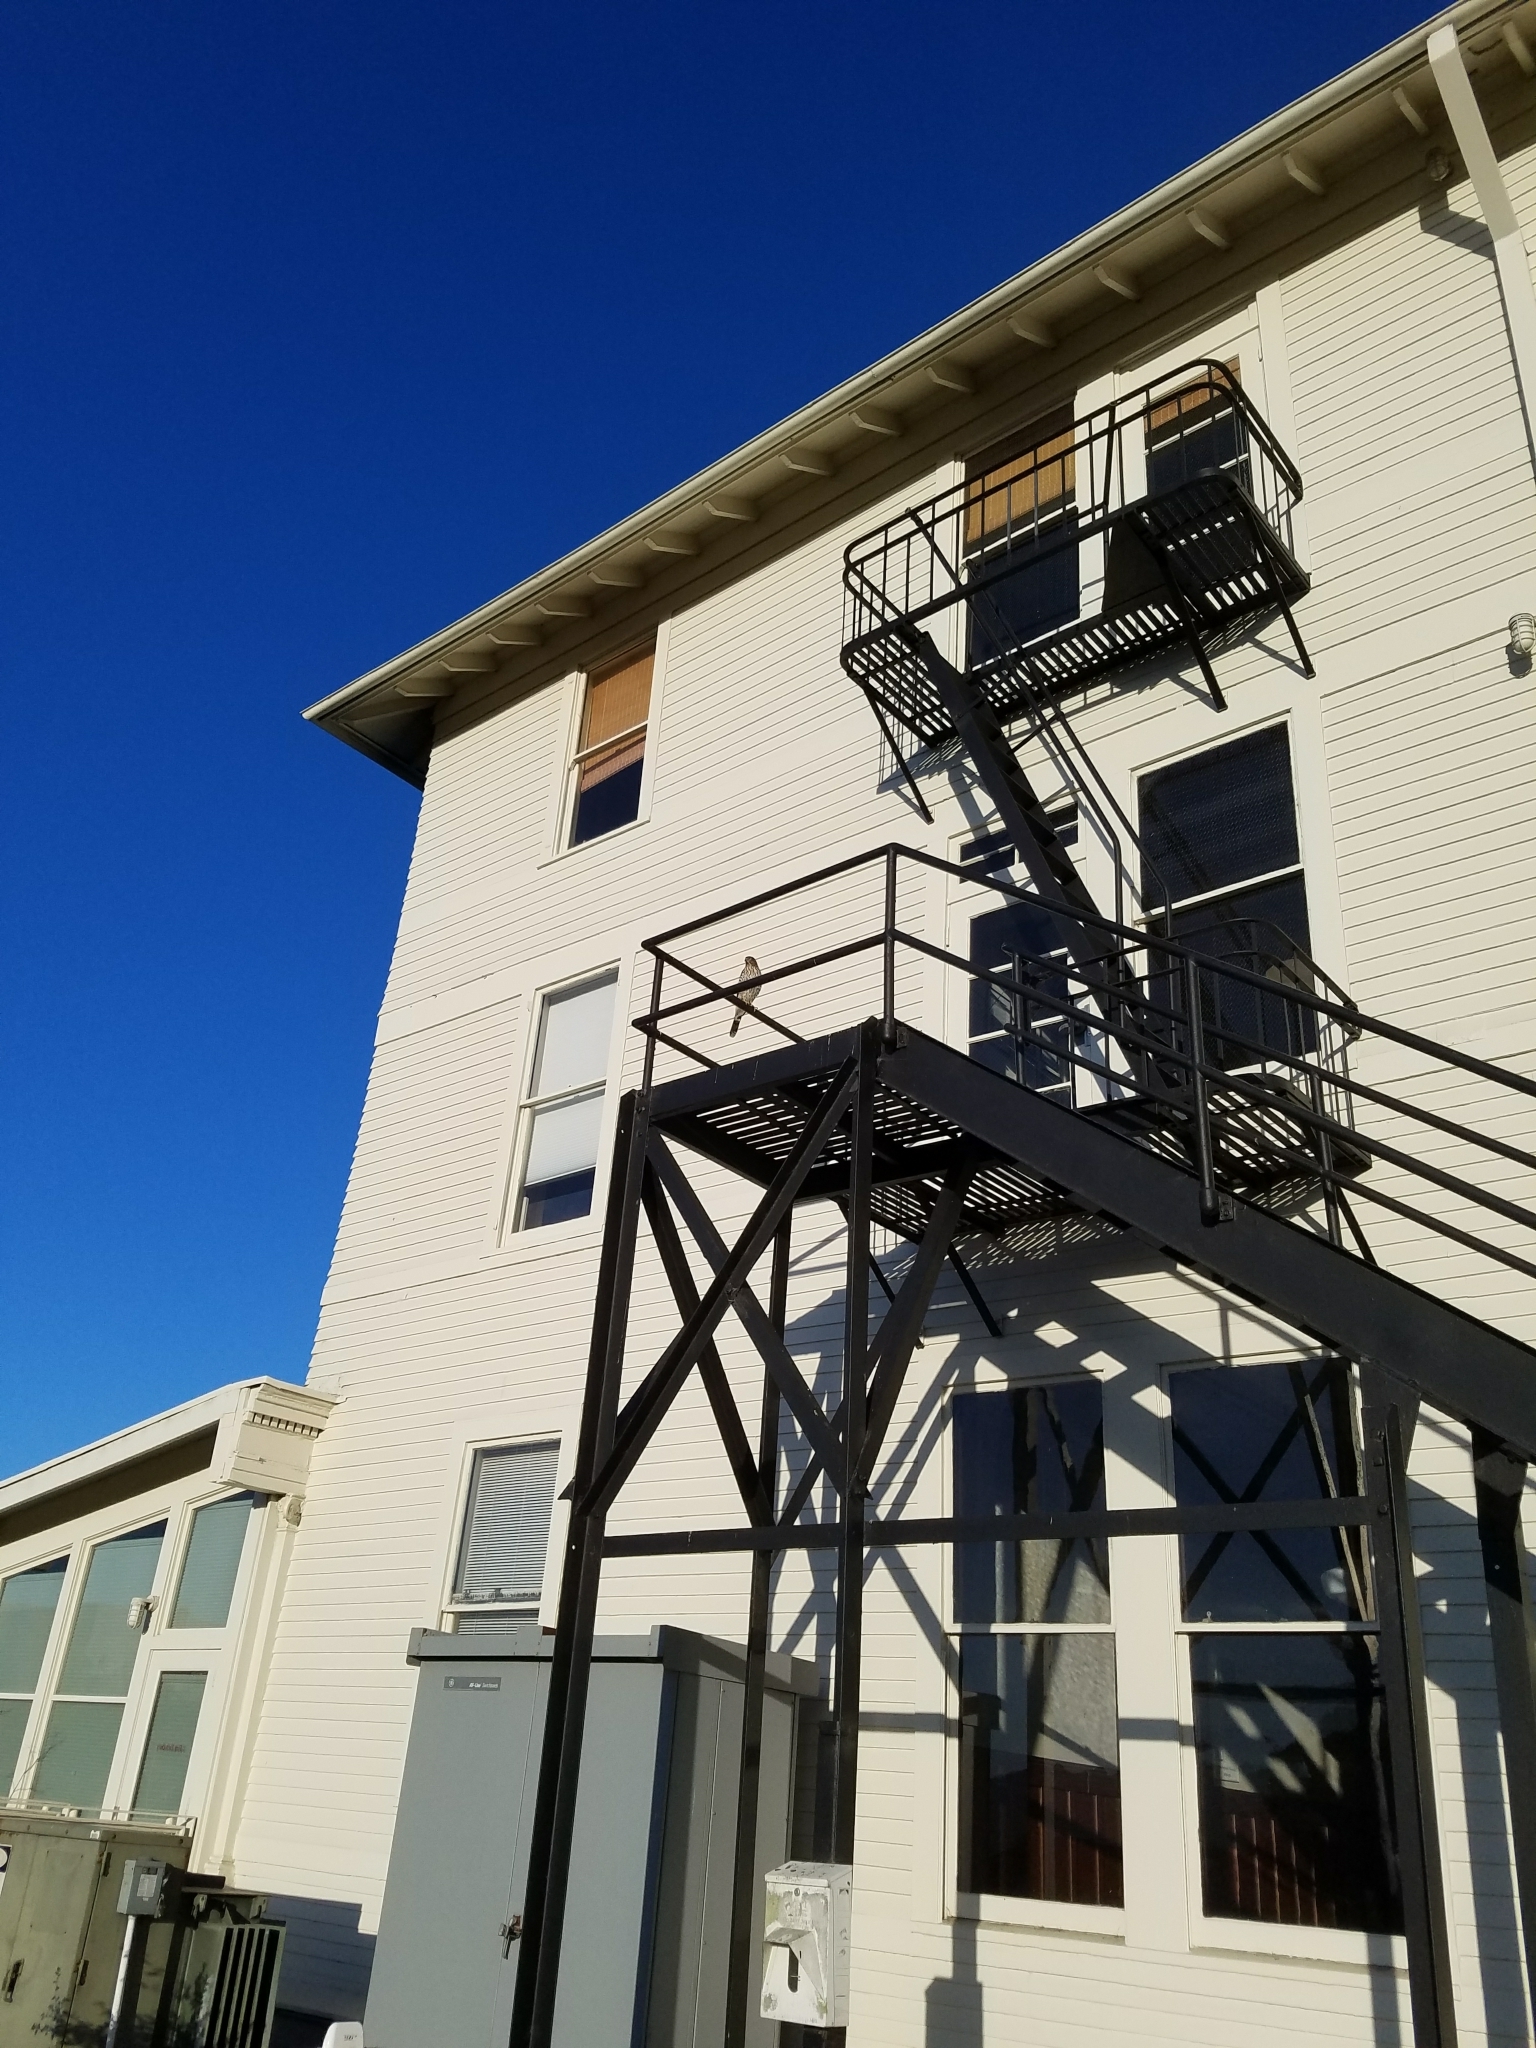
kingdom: Animalia
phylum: Chordata
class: Aves
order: Accipitriformes
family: Accipitridae
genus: Accipiter
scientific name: Accipiter cooperii
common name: Cooper's hawk
